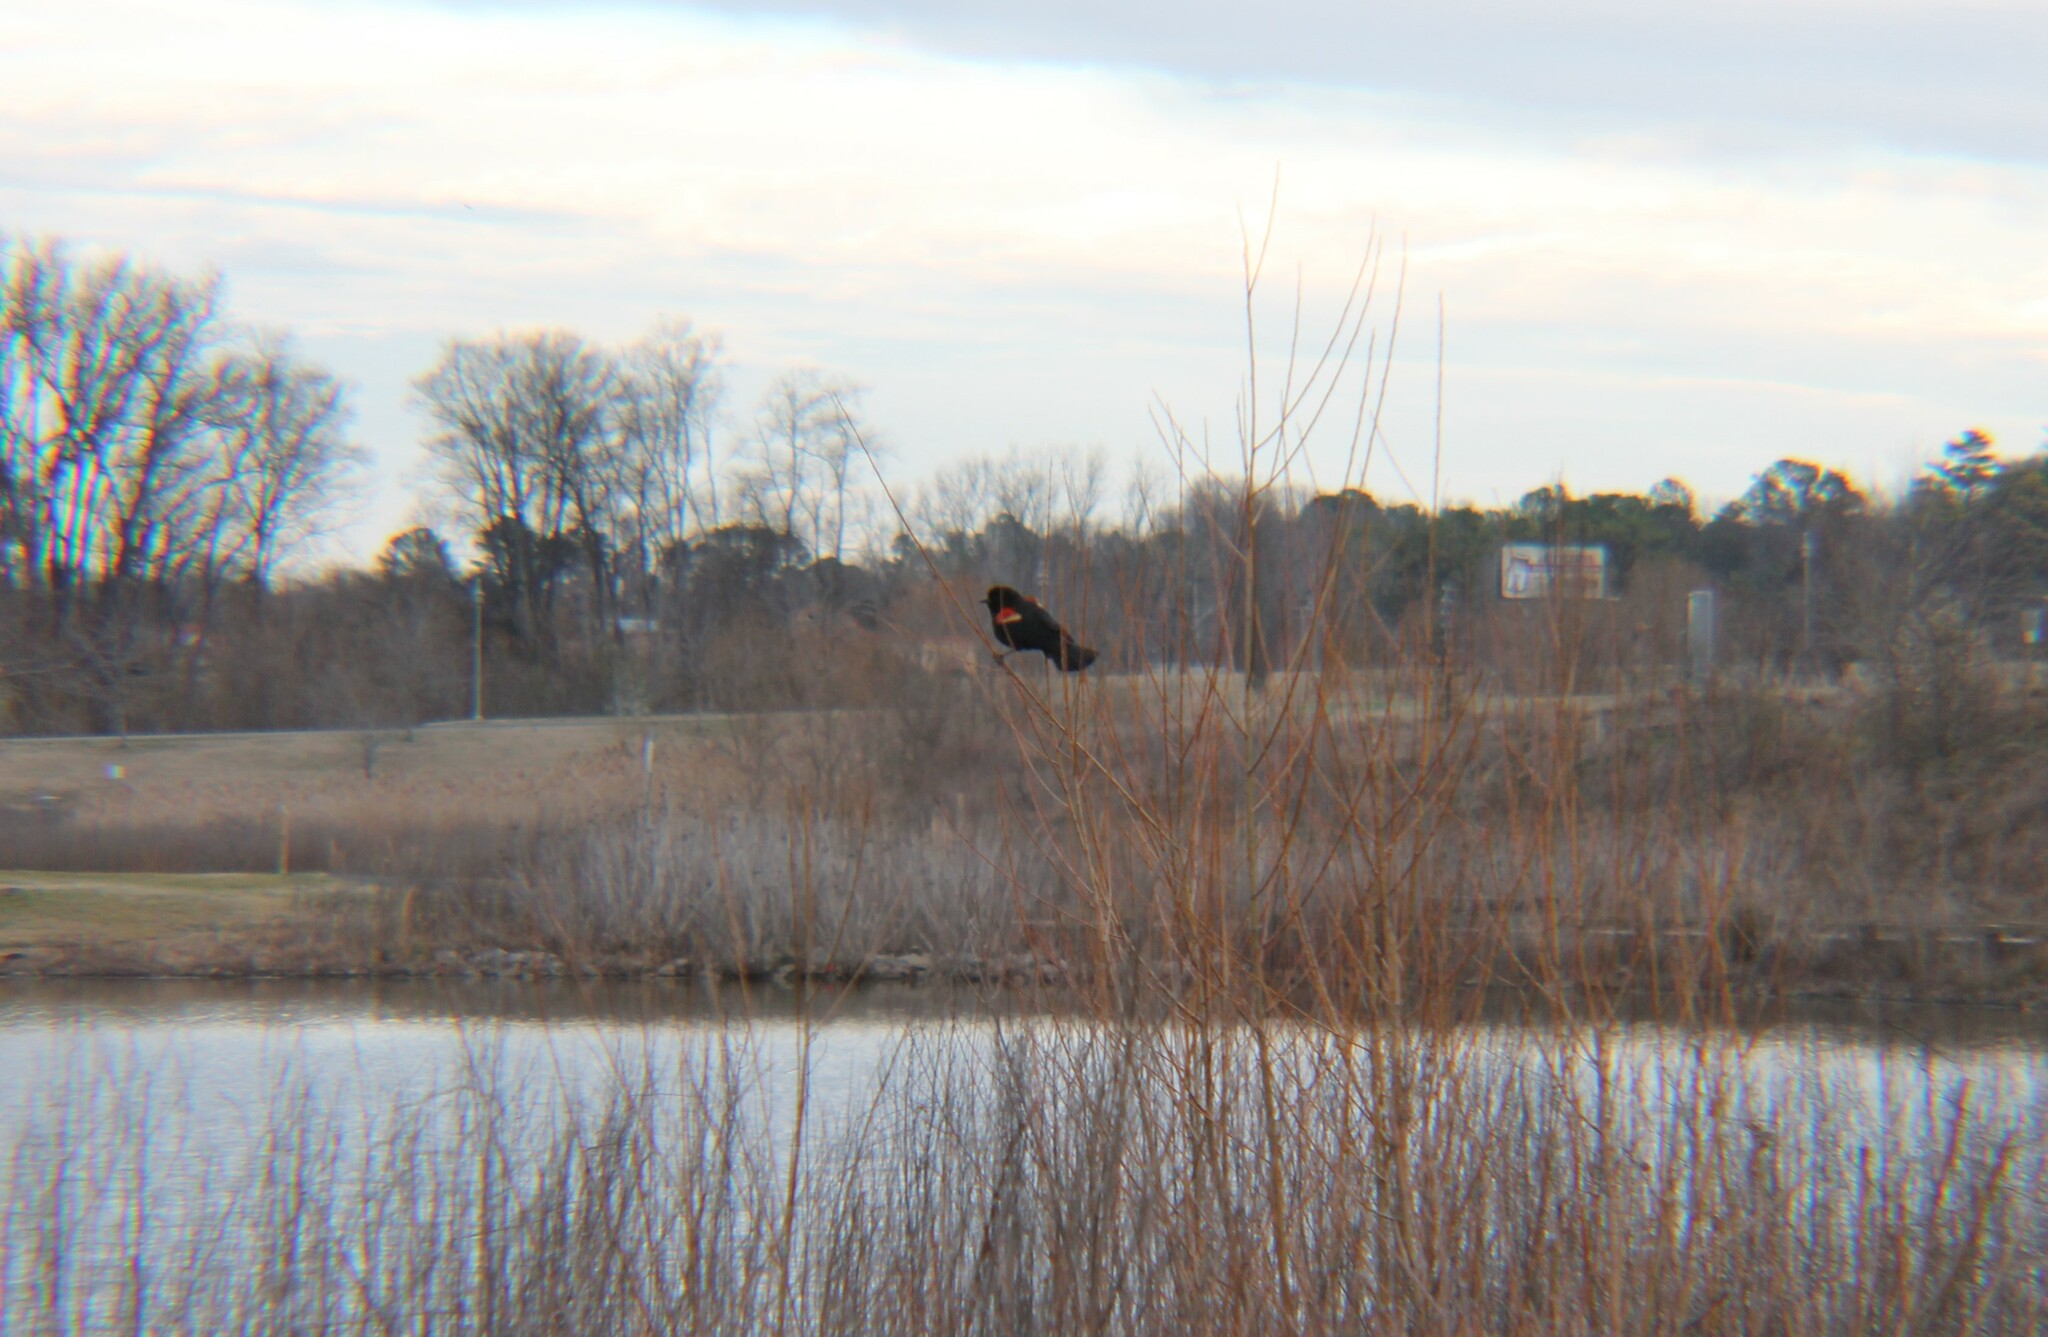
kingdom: Animalia
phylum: Chordata
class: Aves
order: Passeriformes
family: Icteridae
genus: Agelaius
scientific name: Agelaius phoeniceus
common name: Red-winged blackbird
